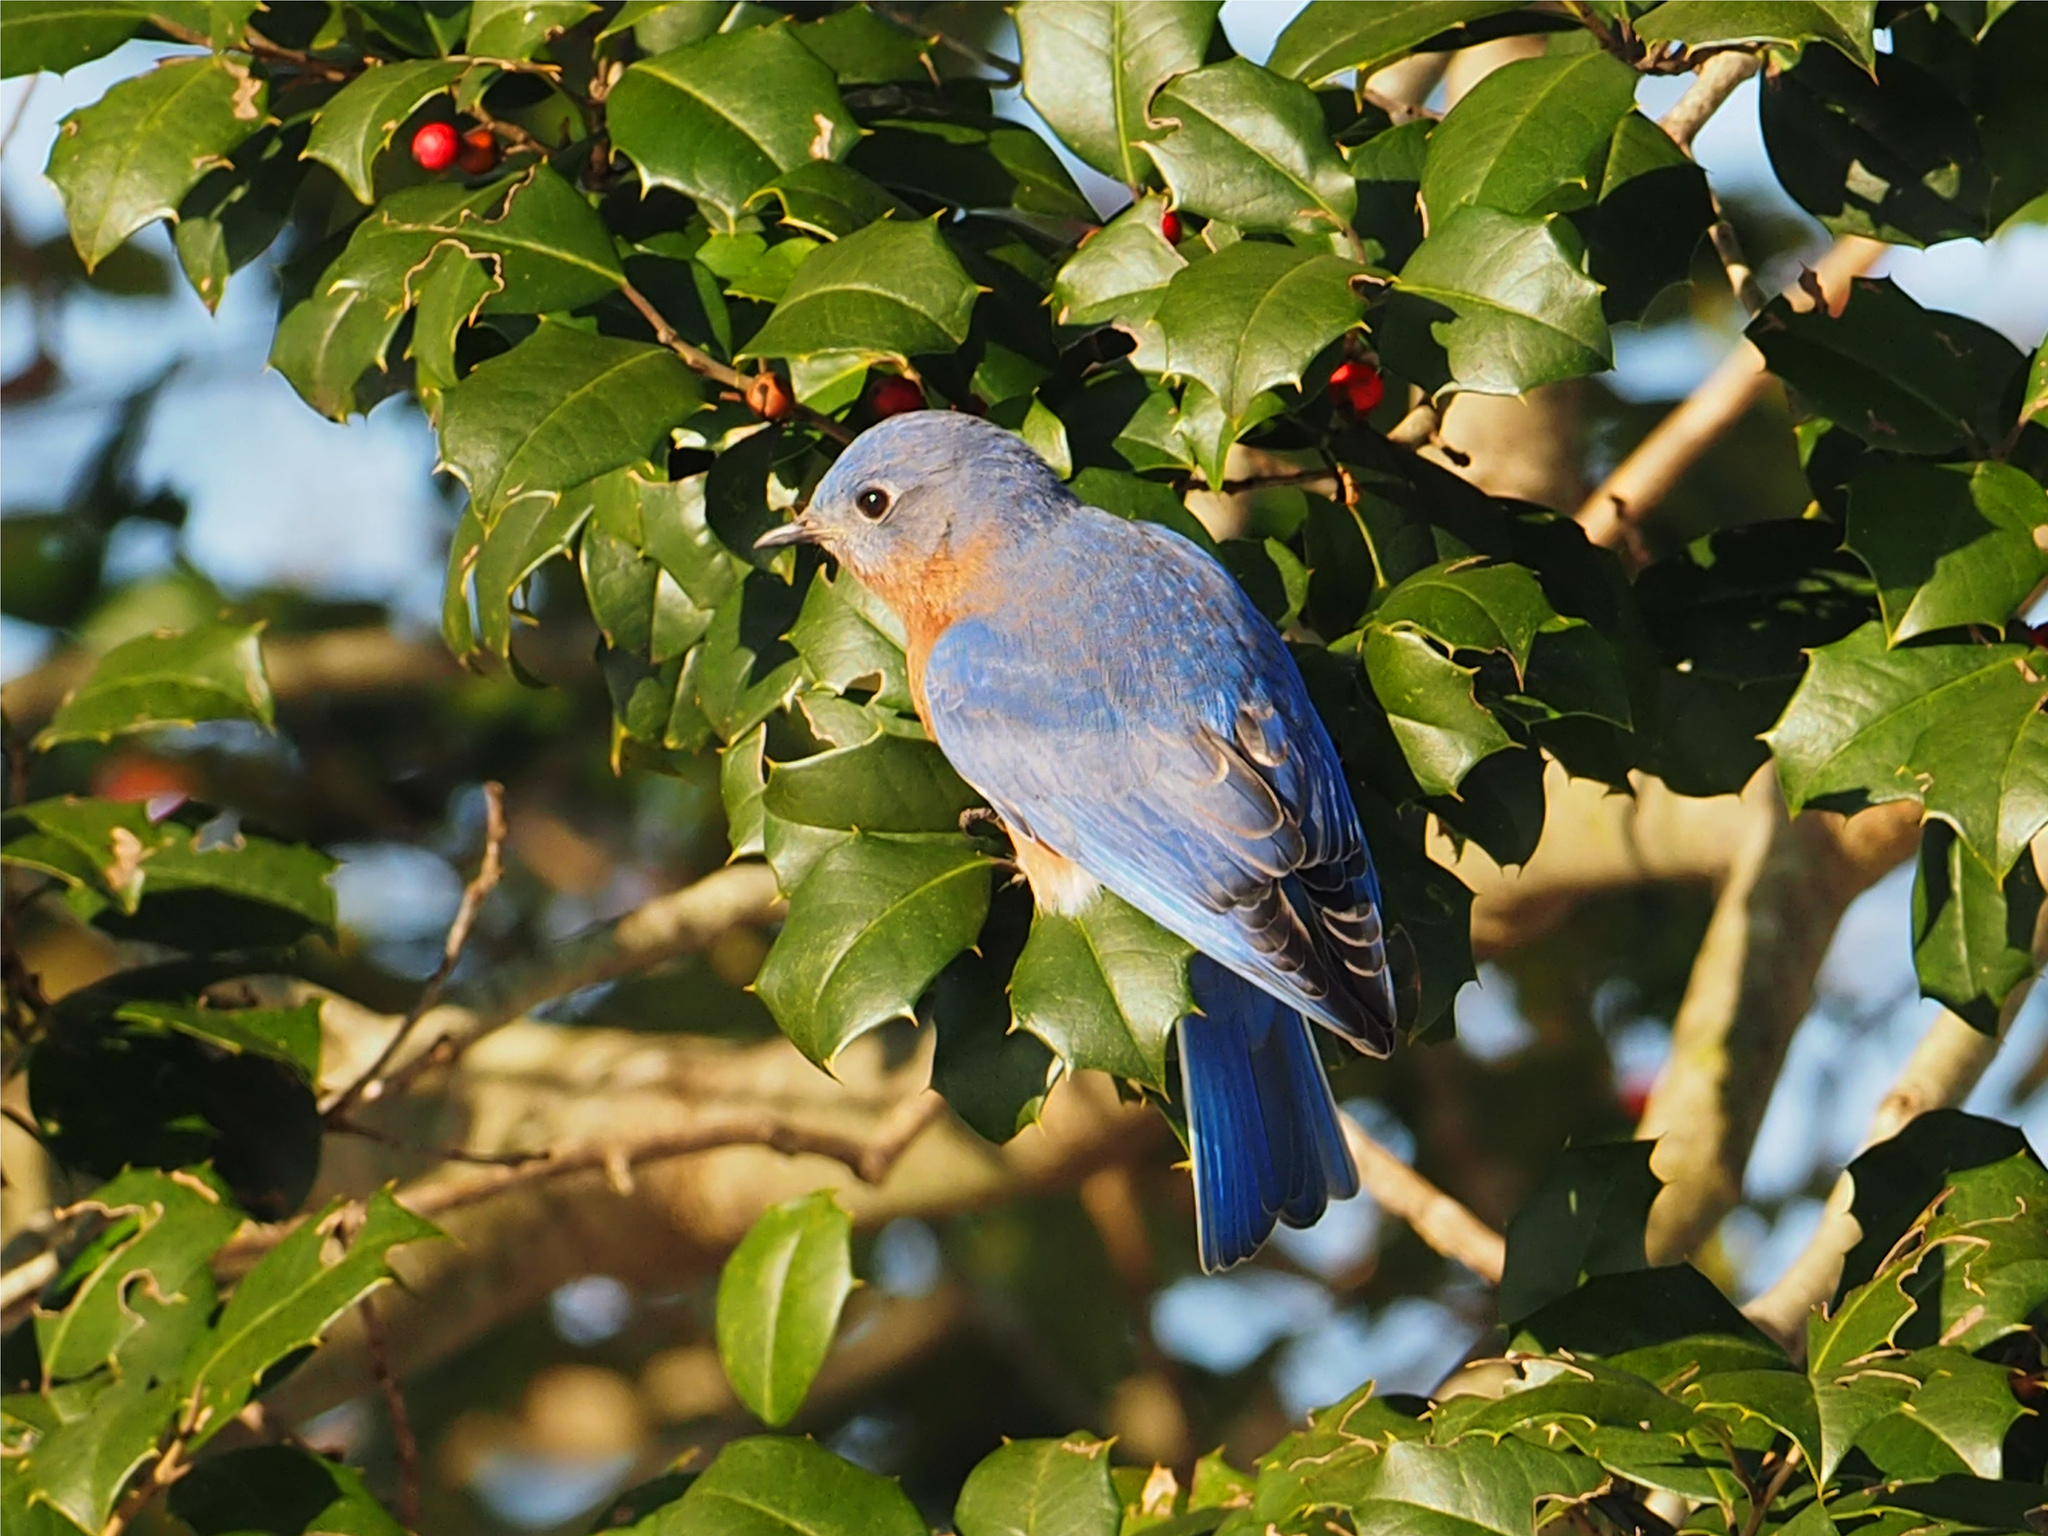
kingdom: Animalia
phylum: Chordata
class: Aves
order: Passeriformes
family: Turdidae
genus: Sialia
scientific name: Sialia sialis
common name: Eastern bluebird
